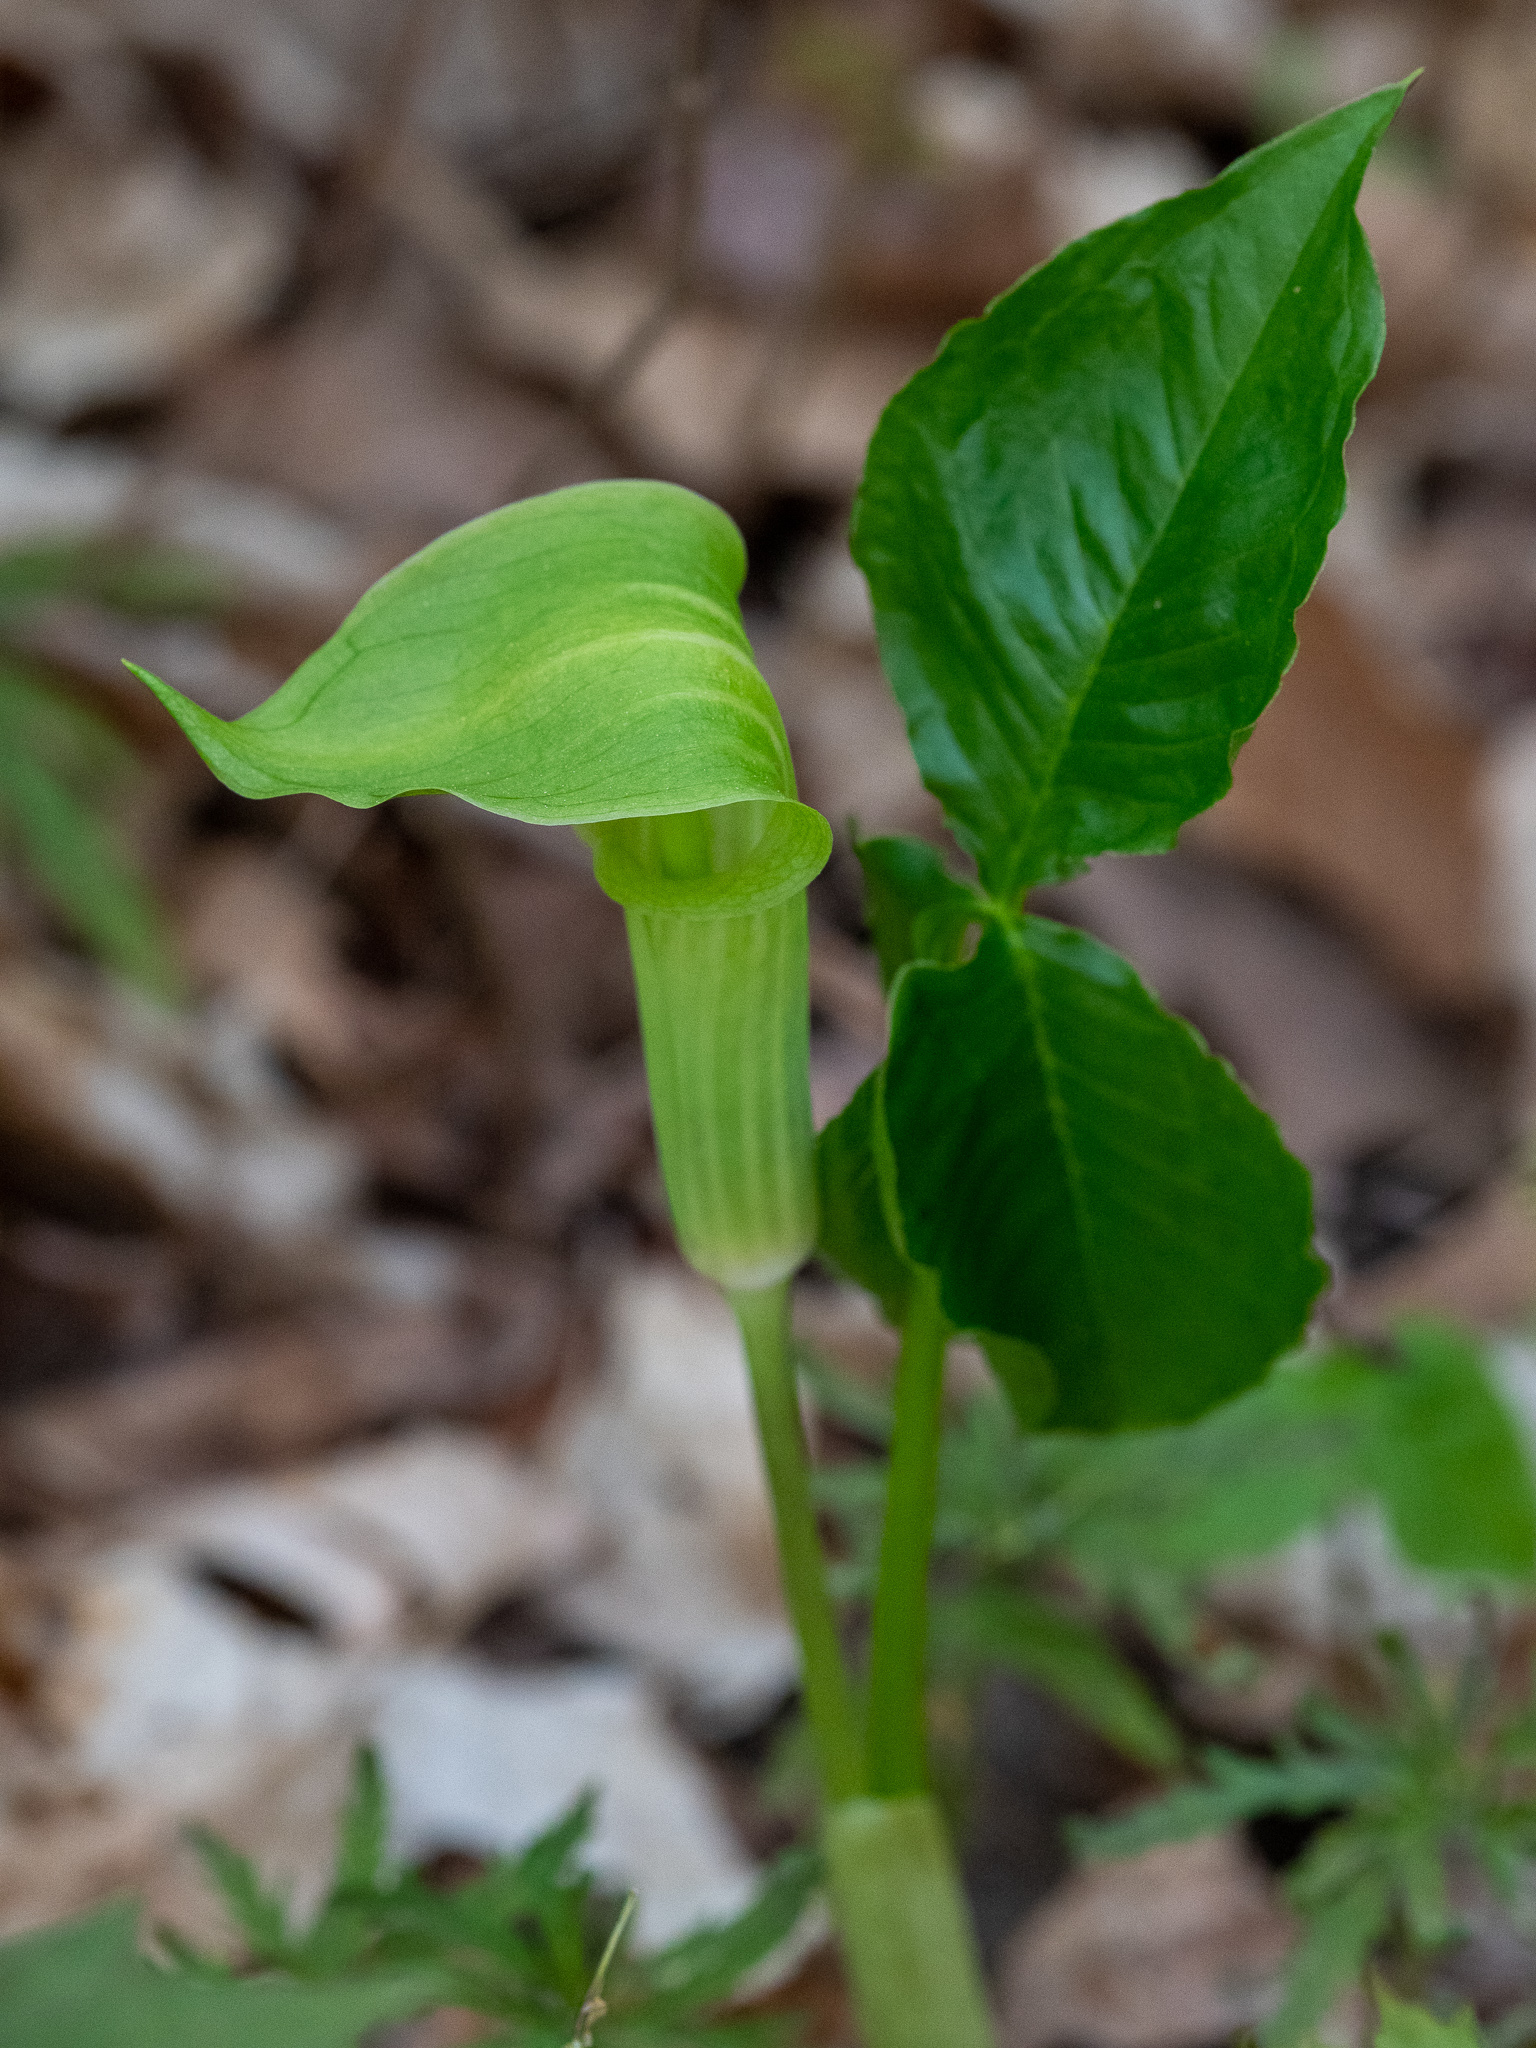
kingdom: Plantae
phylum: Tracheophyta
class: Liliopsida
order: Alismatales
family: Araceae
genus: Arisaema
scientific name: Arisaema triphyllum
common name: Jack-in-the-pulpit
